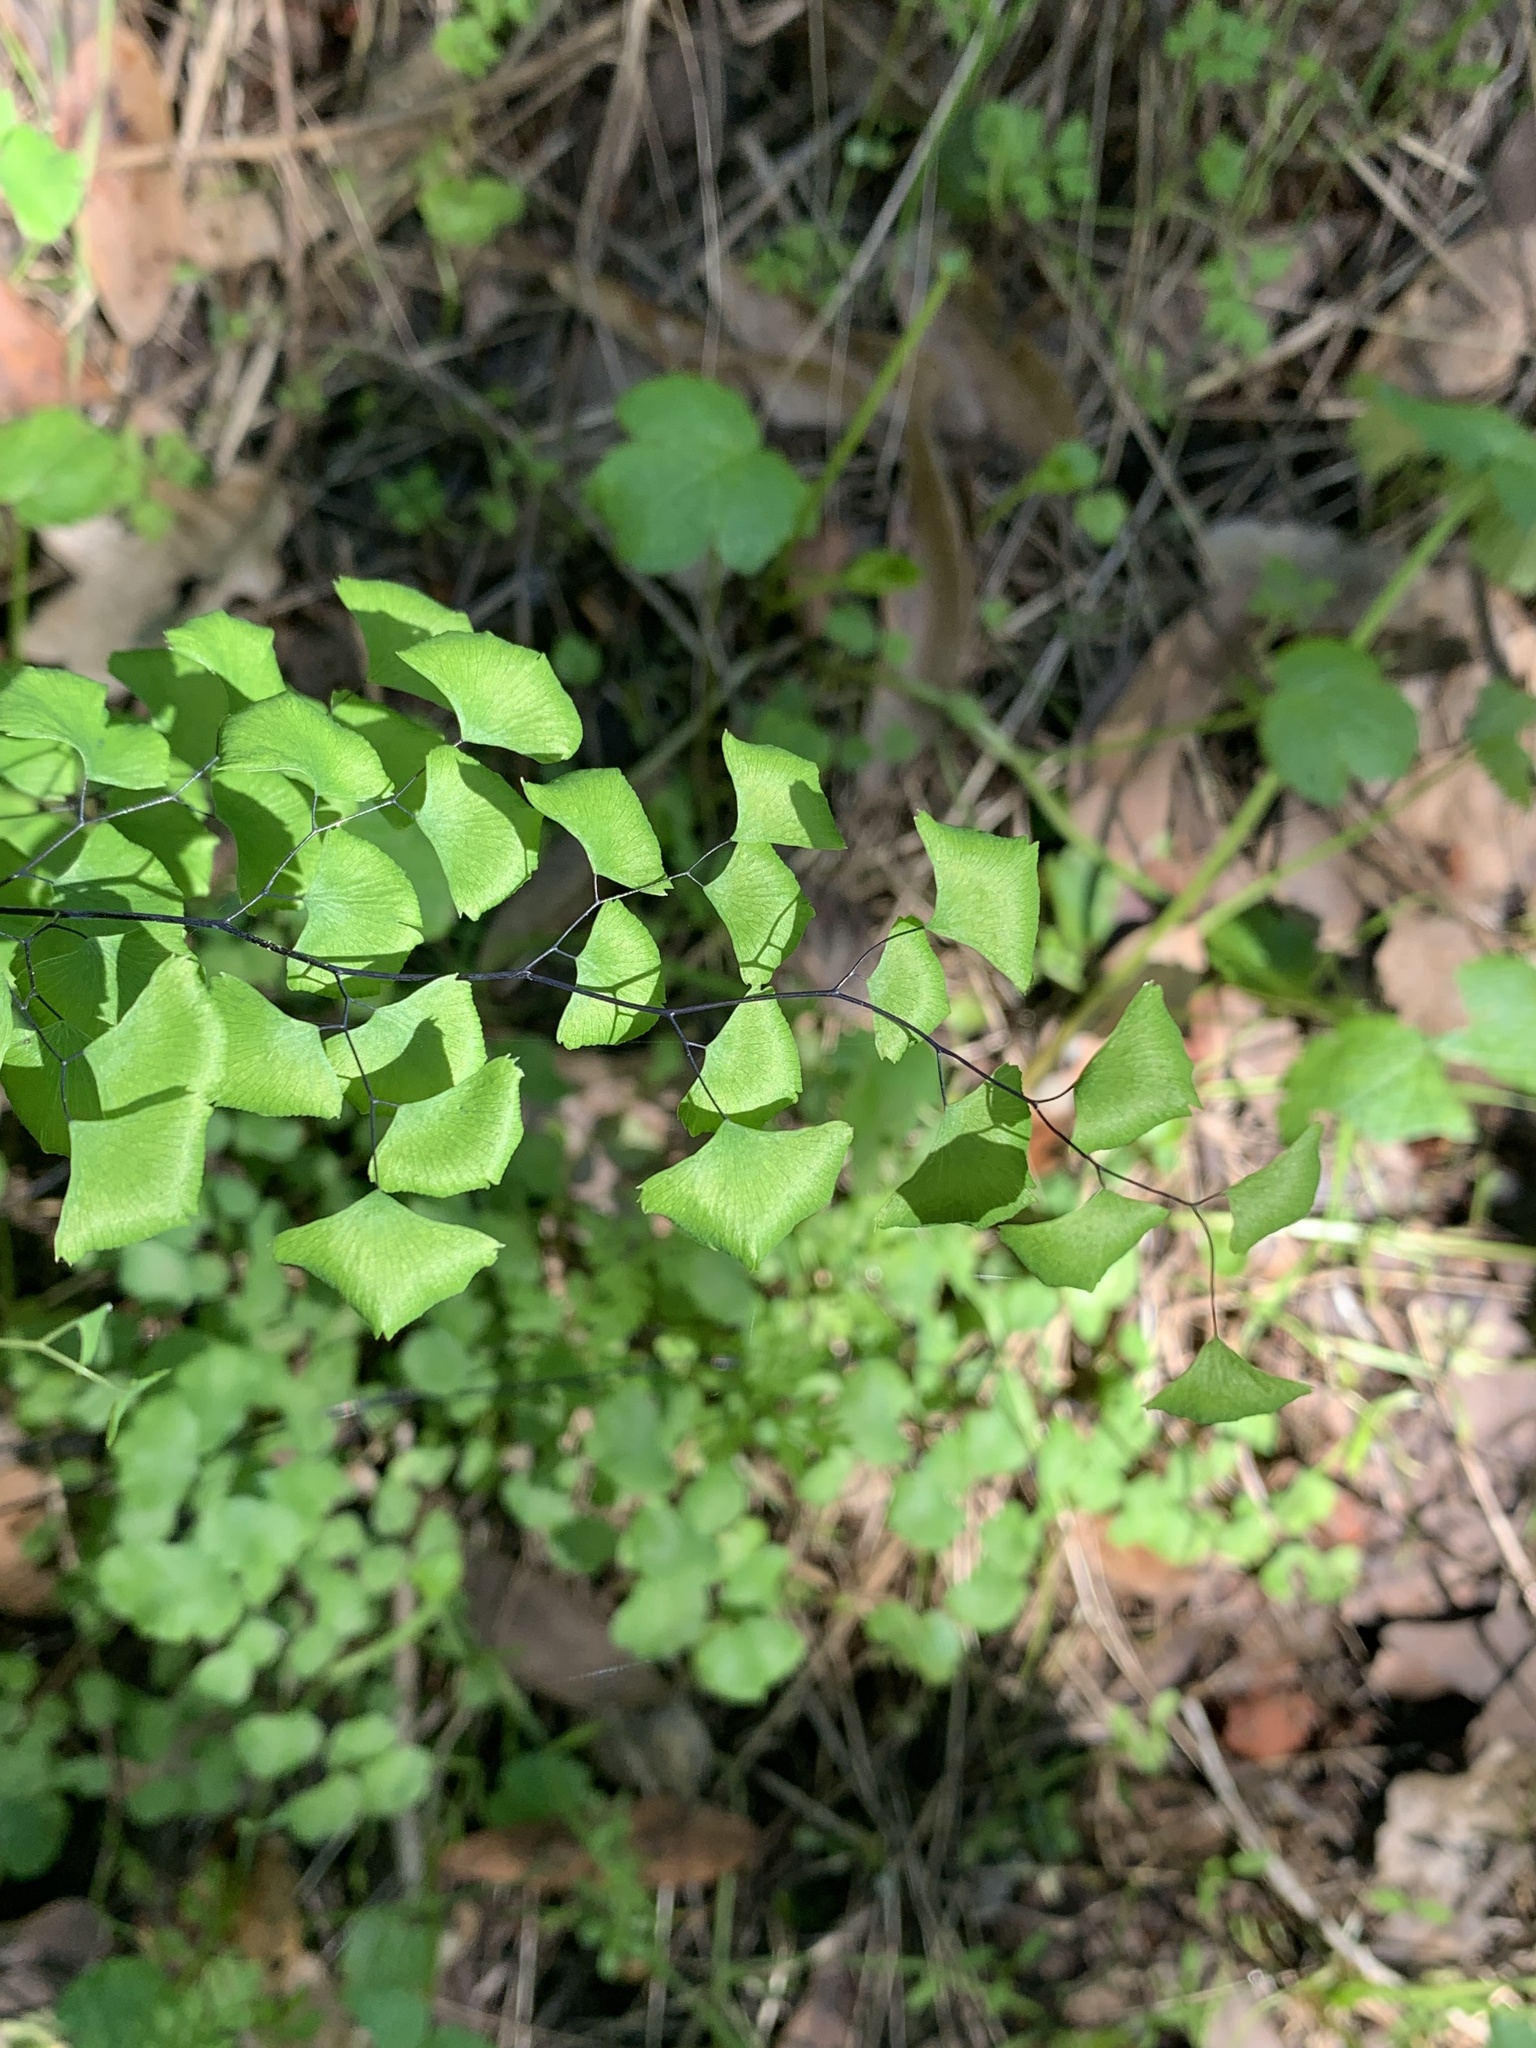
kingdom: Plantae
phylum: Tracheophyta
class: Polypodiopsida
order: Polypodiales
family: Pteridaceae
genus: Adiantum
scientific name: Adiantum jordanii
